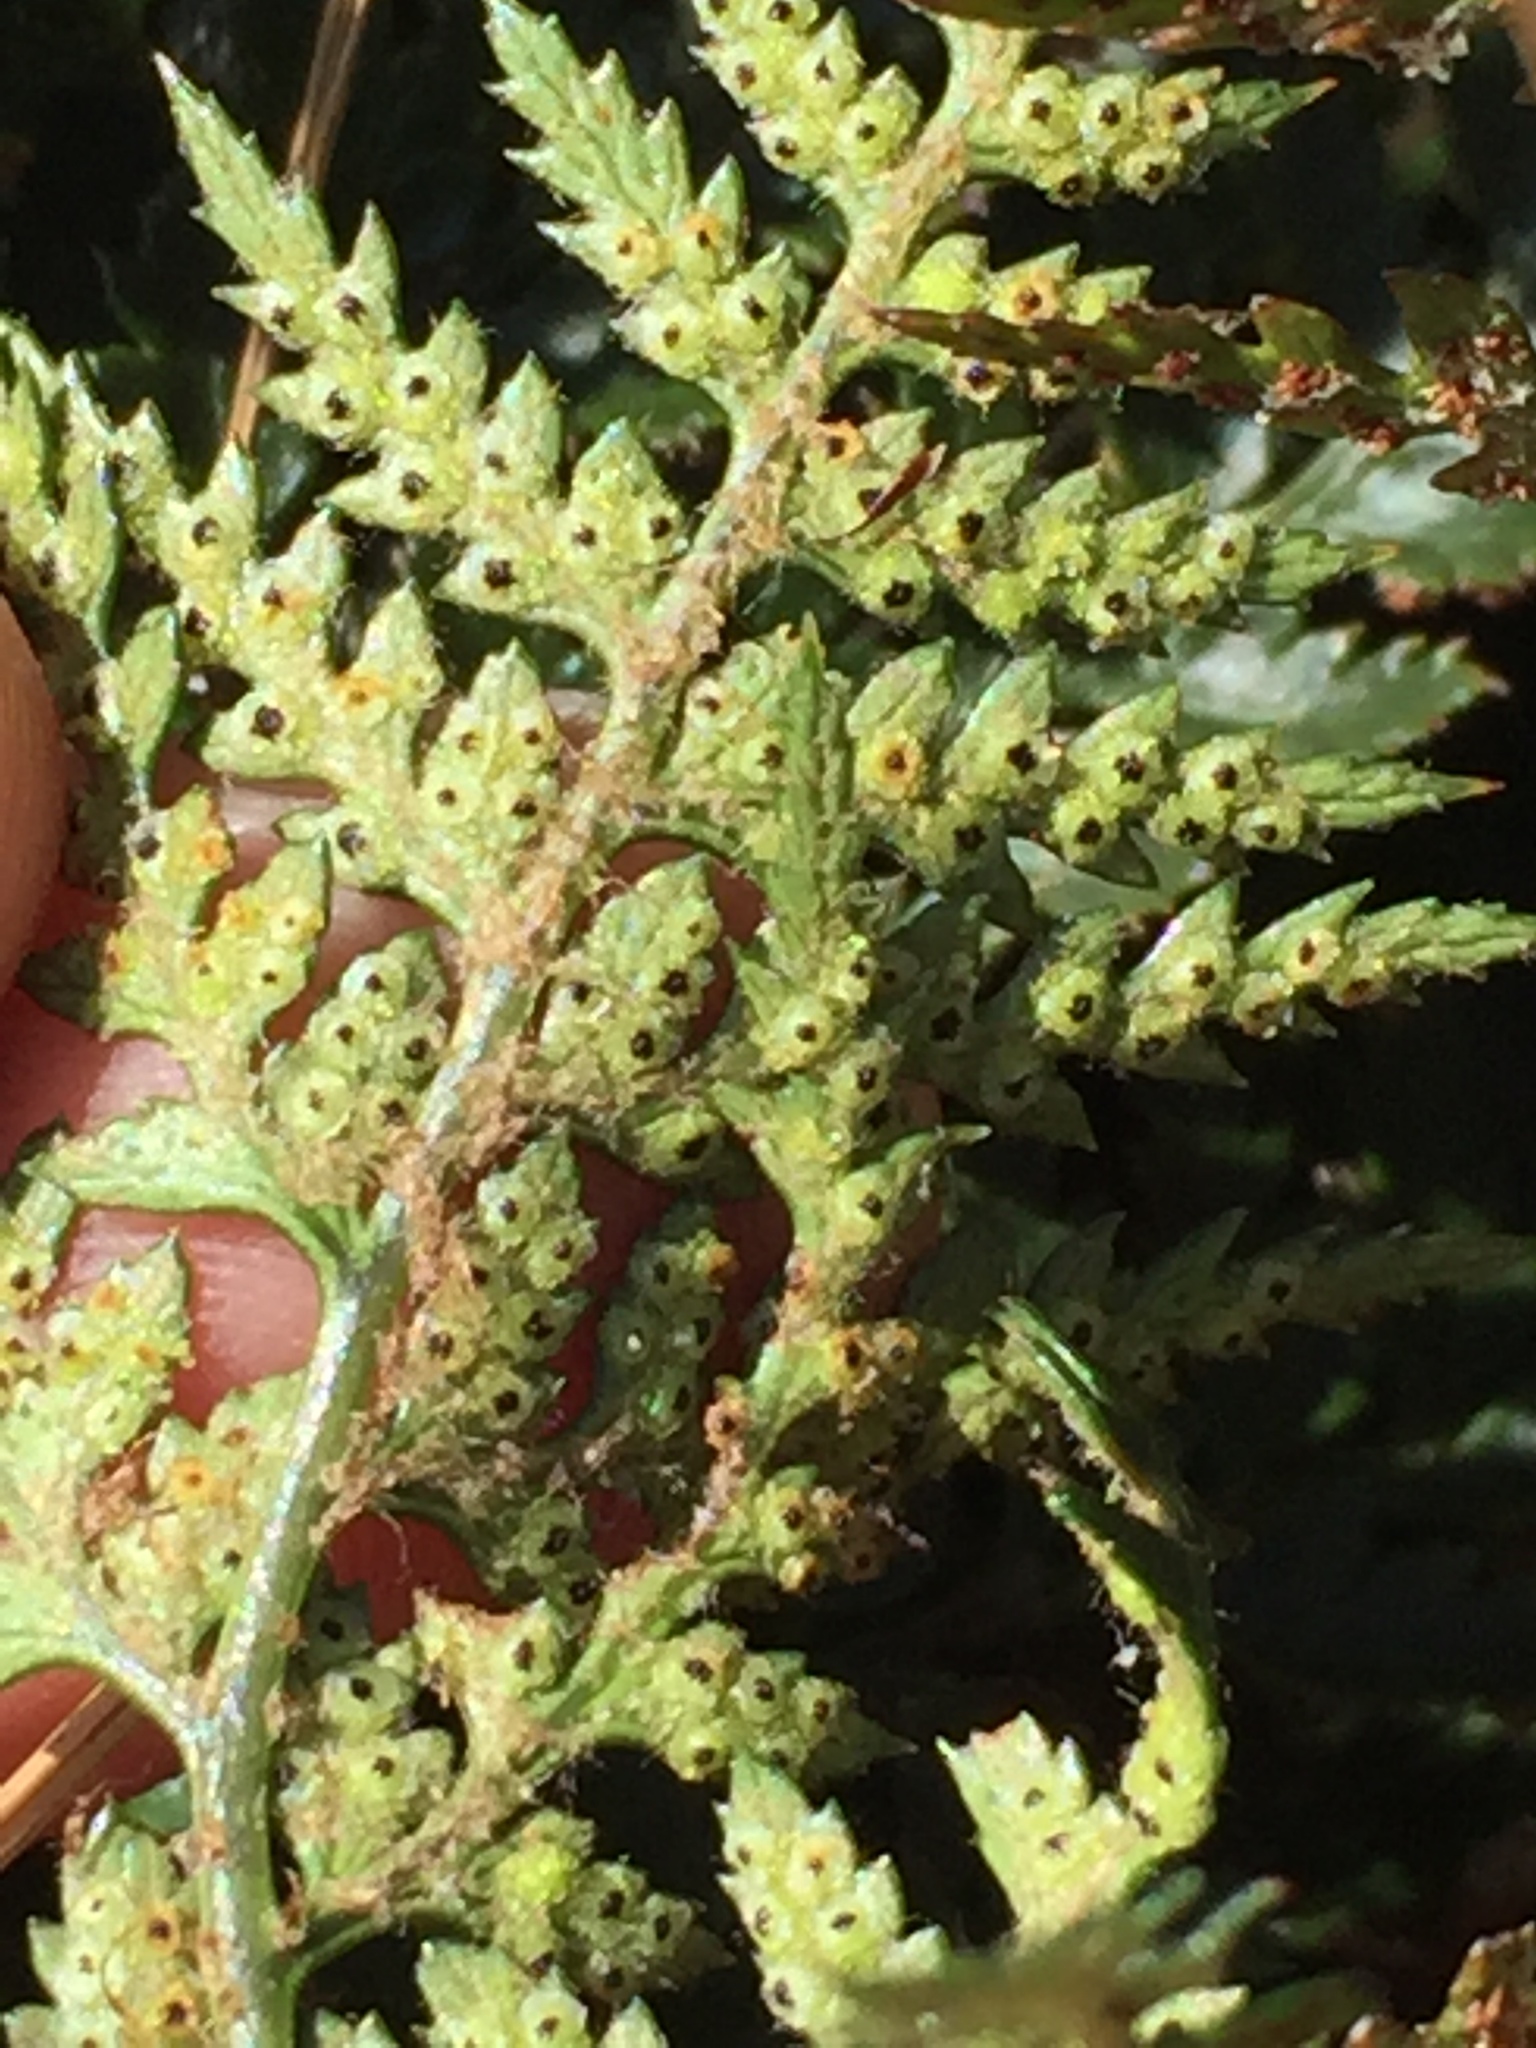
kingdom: Plantae
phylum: Tracheophyta
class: Polypodiopsida
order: Polypodiales
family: Dryopteridaceae
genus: Polystichum
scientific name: Polystichum oculatum
